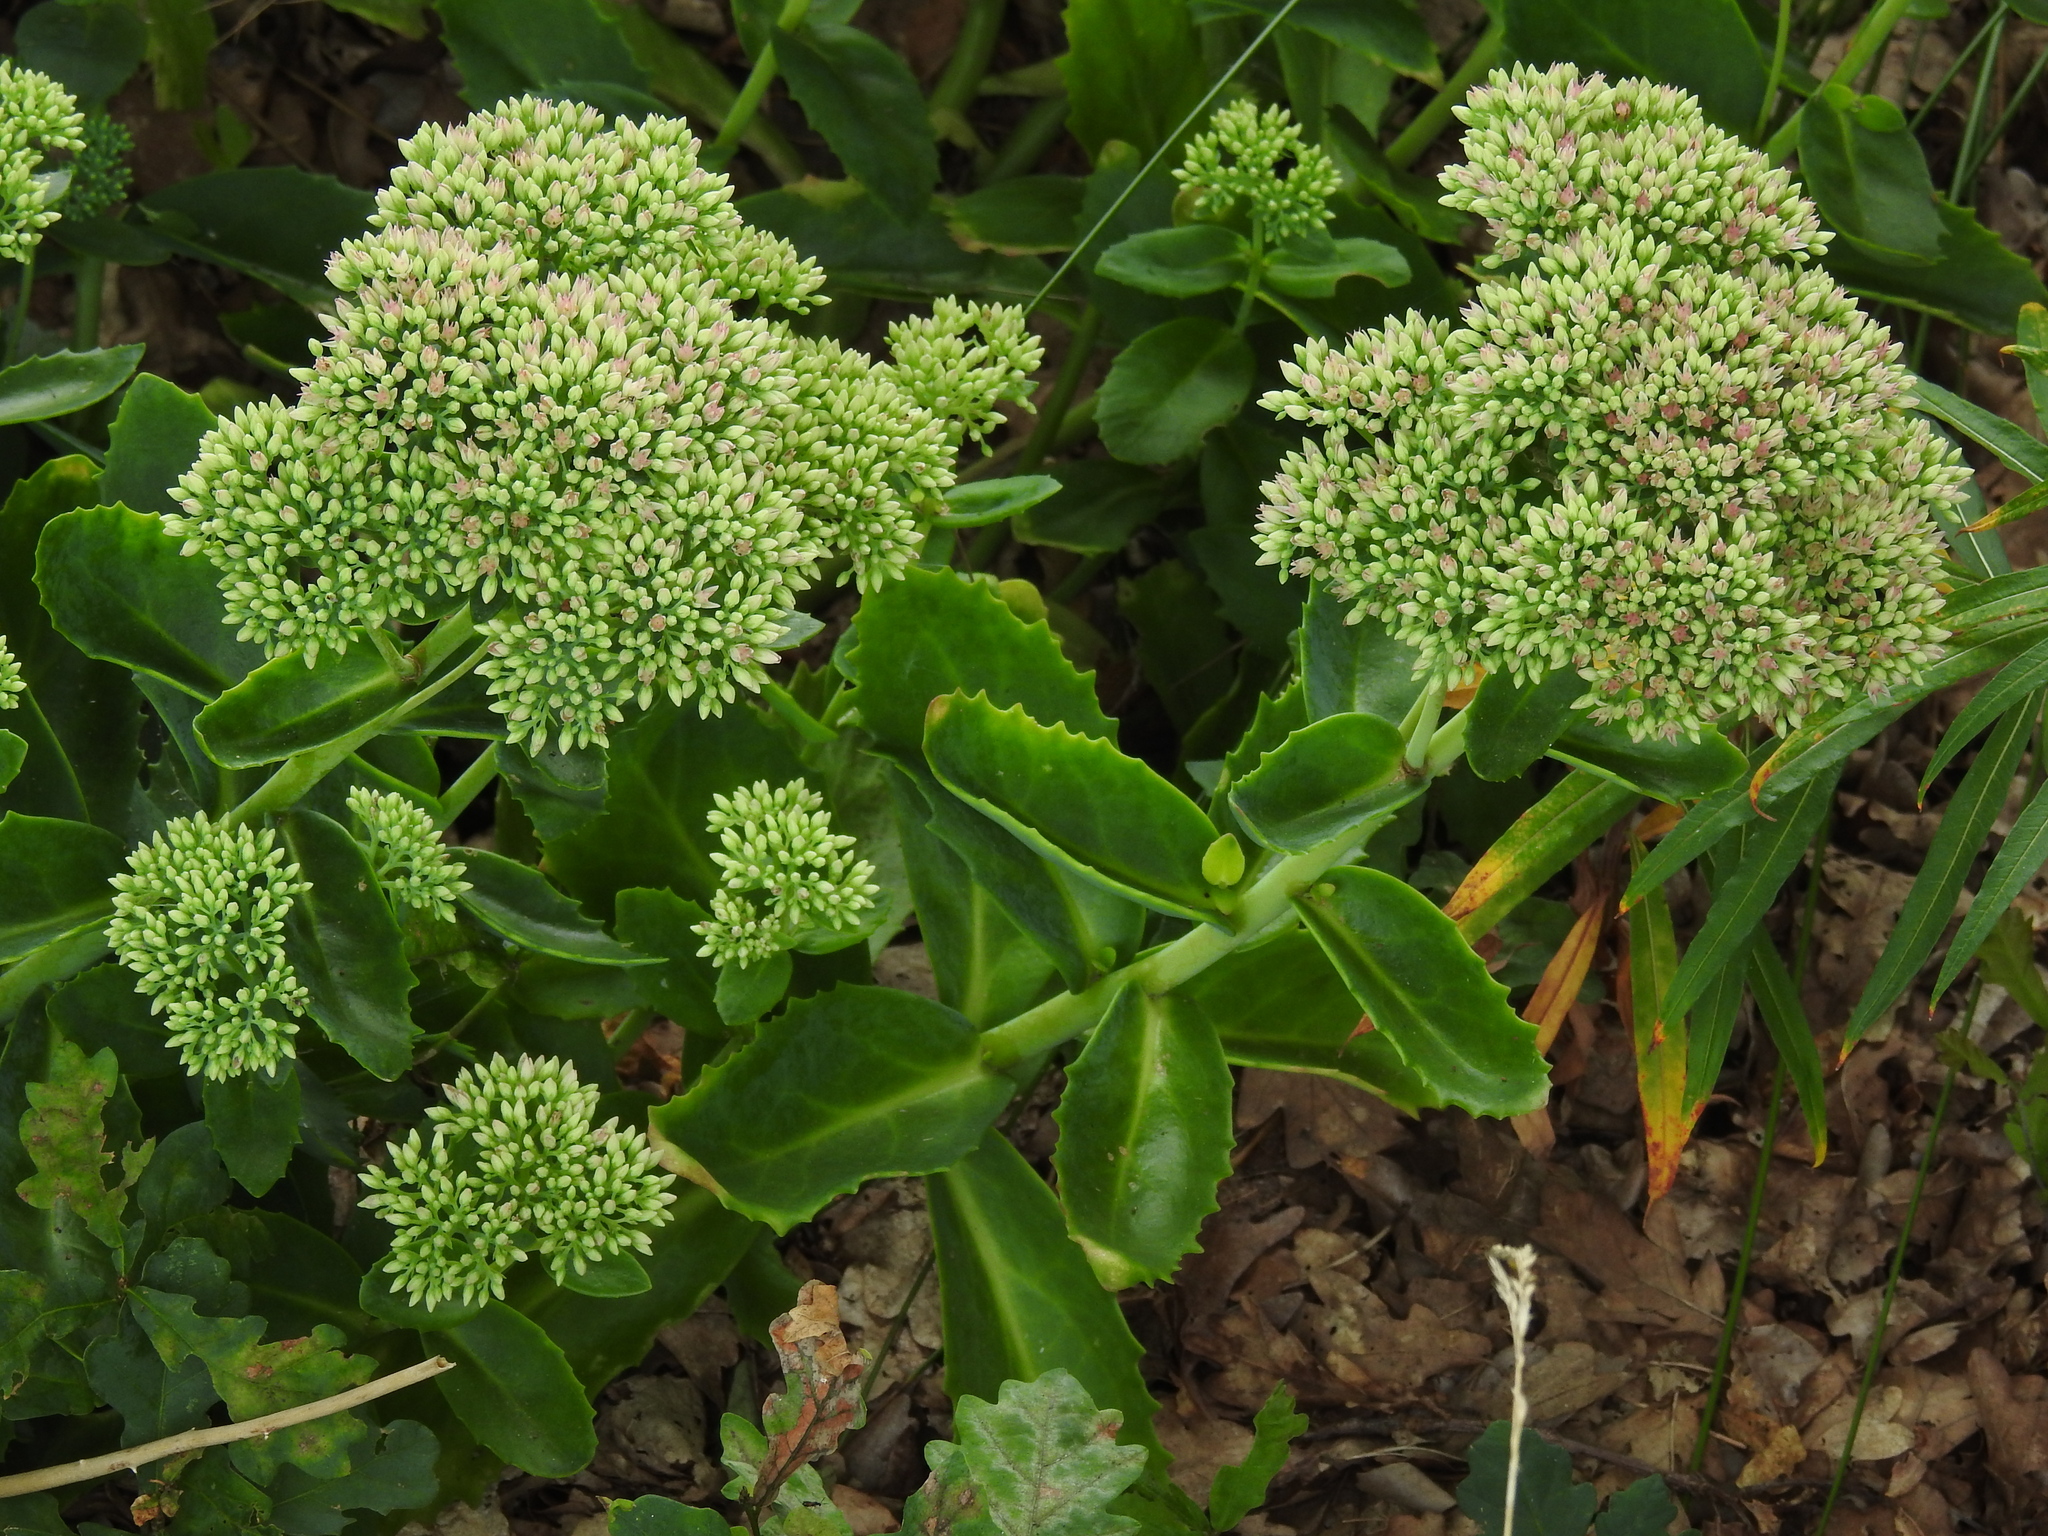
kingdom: Plantae
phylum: Tracheophyta
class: Magnoliopsida
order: Saxifragales
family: Crassulaceae
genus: Hylotelephium
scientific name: Hylotelephium maximum
